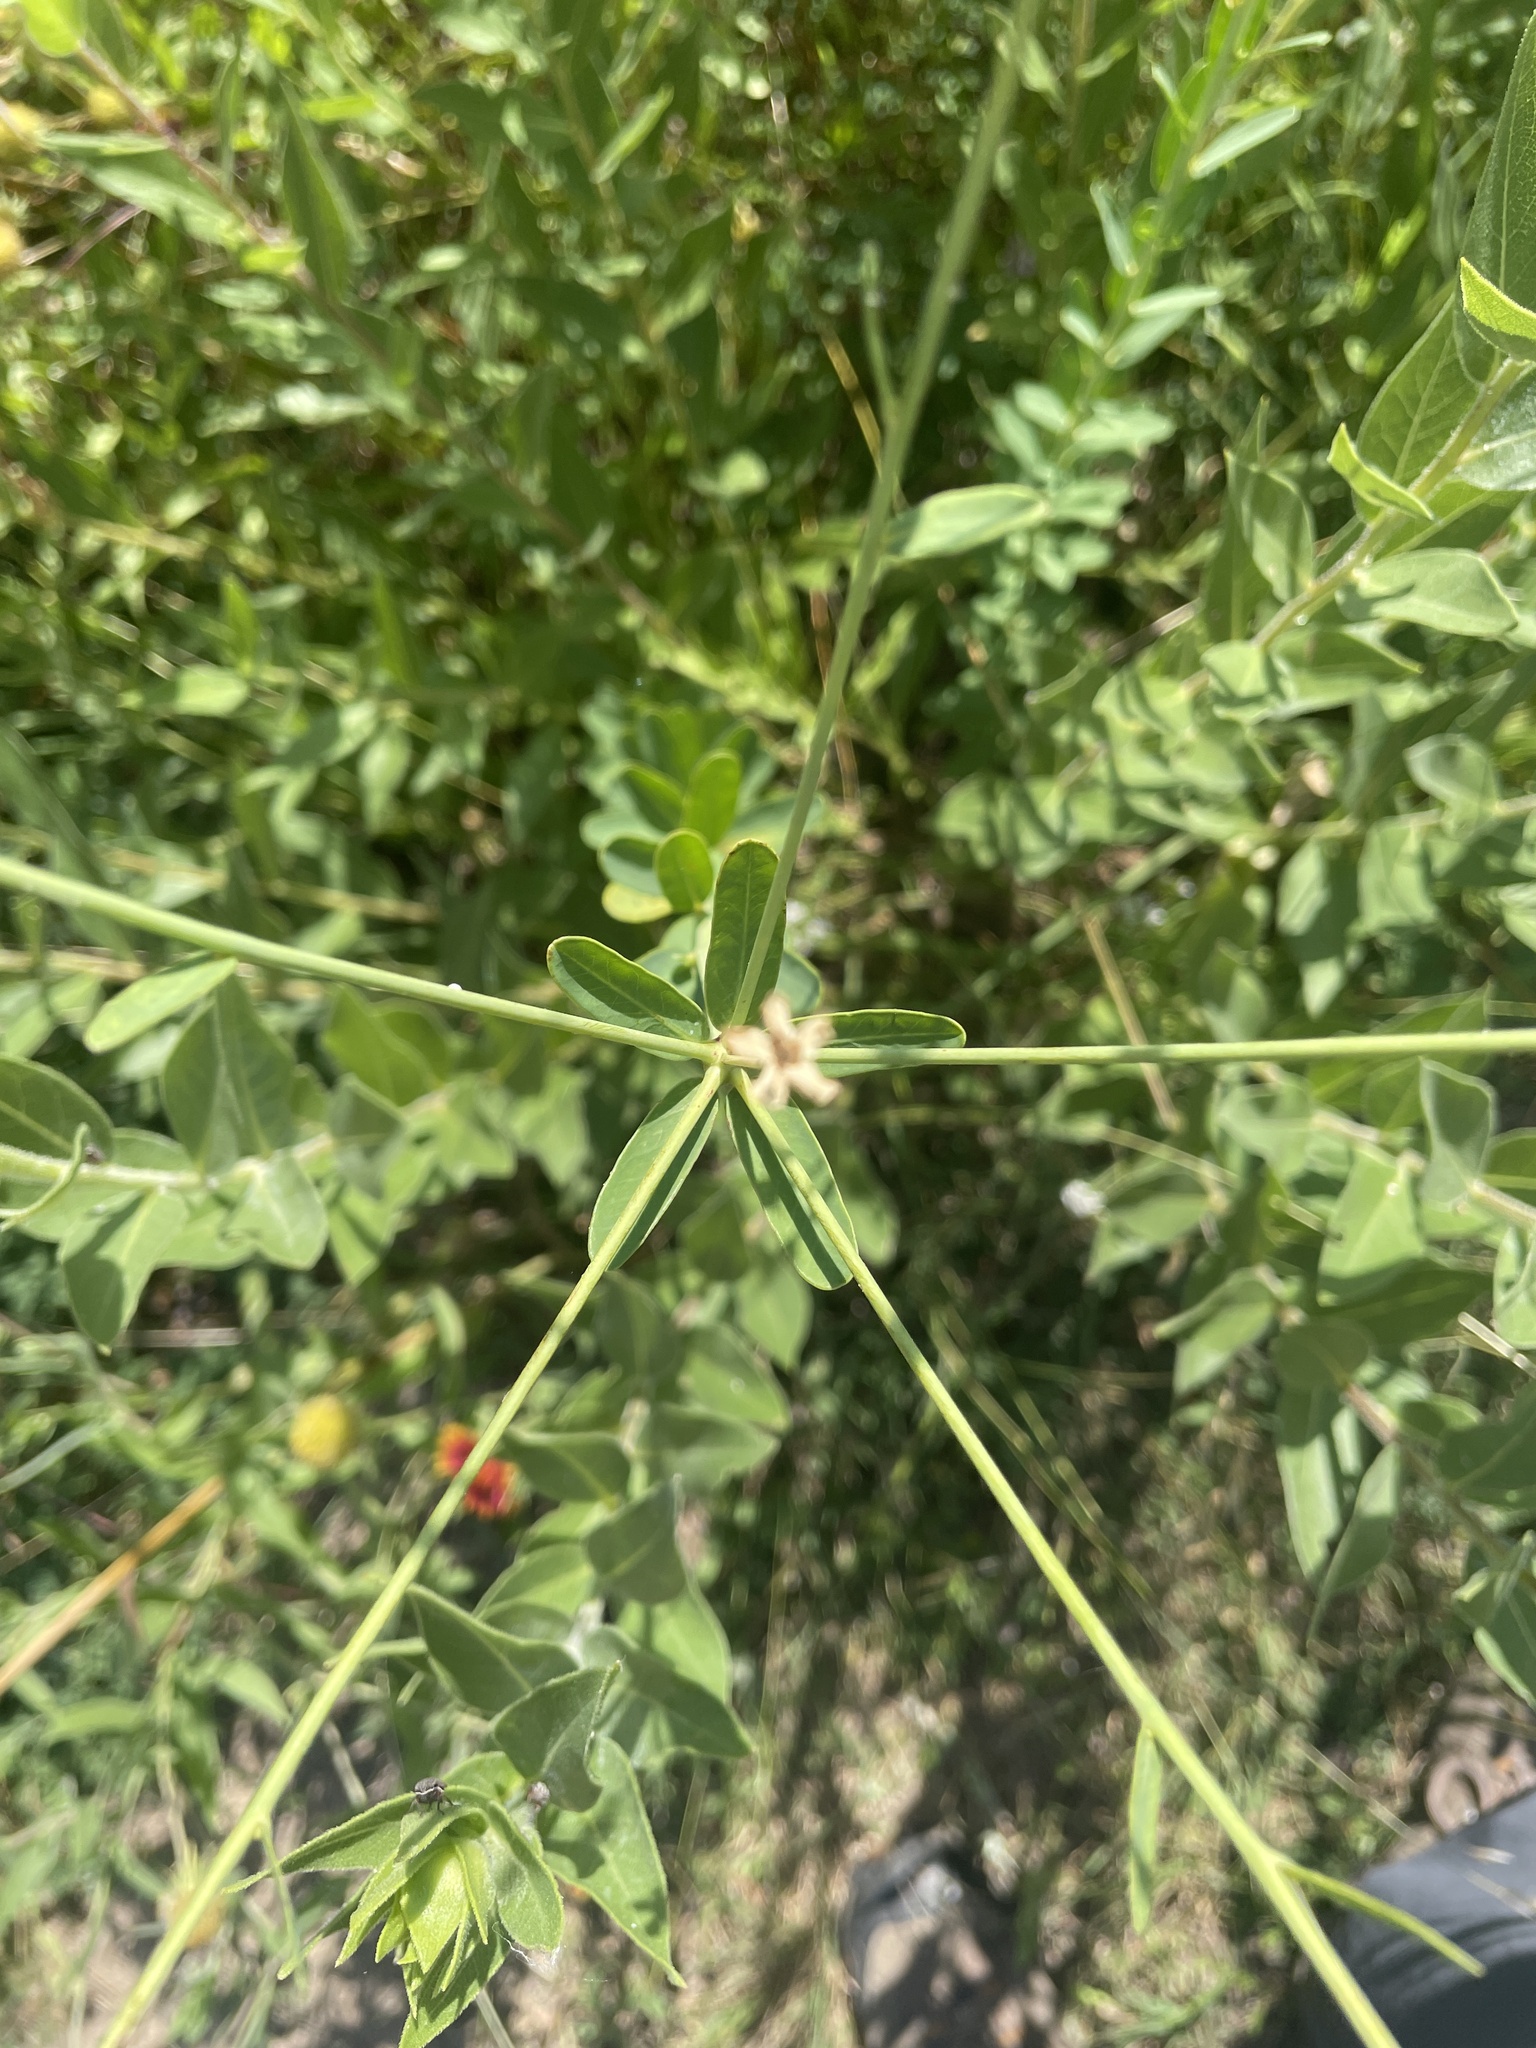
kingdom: Plantae
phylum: Tracheophyta
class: Magnoliopsida
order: Malpighiales
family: Euphorbiaceae
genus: Euphorbia
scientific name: Euphorbia corollata
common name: Flowering spurge
